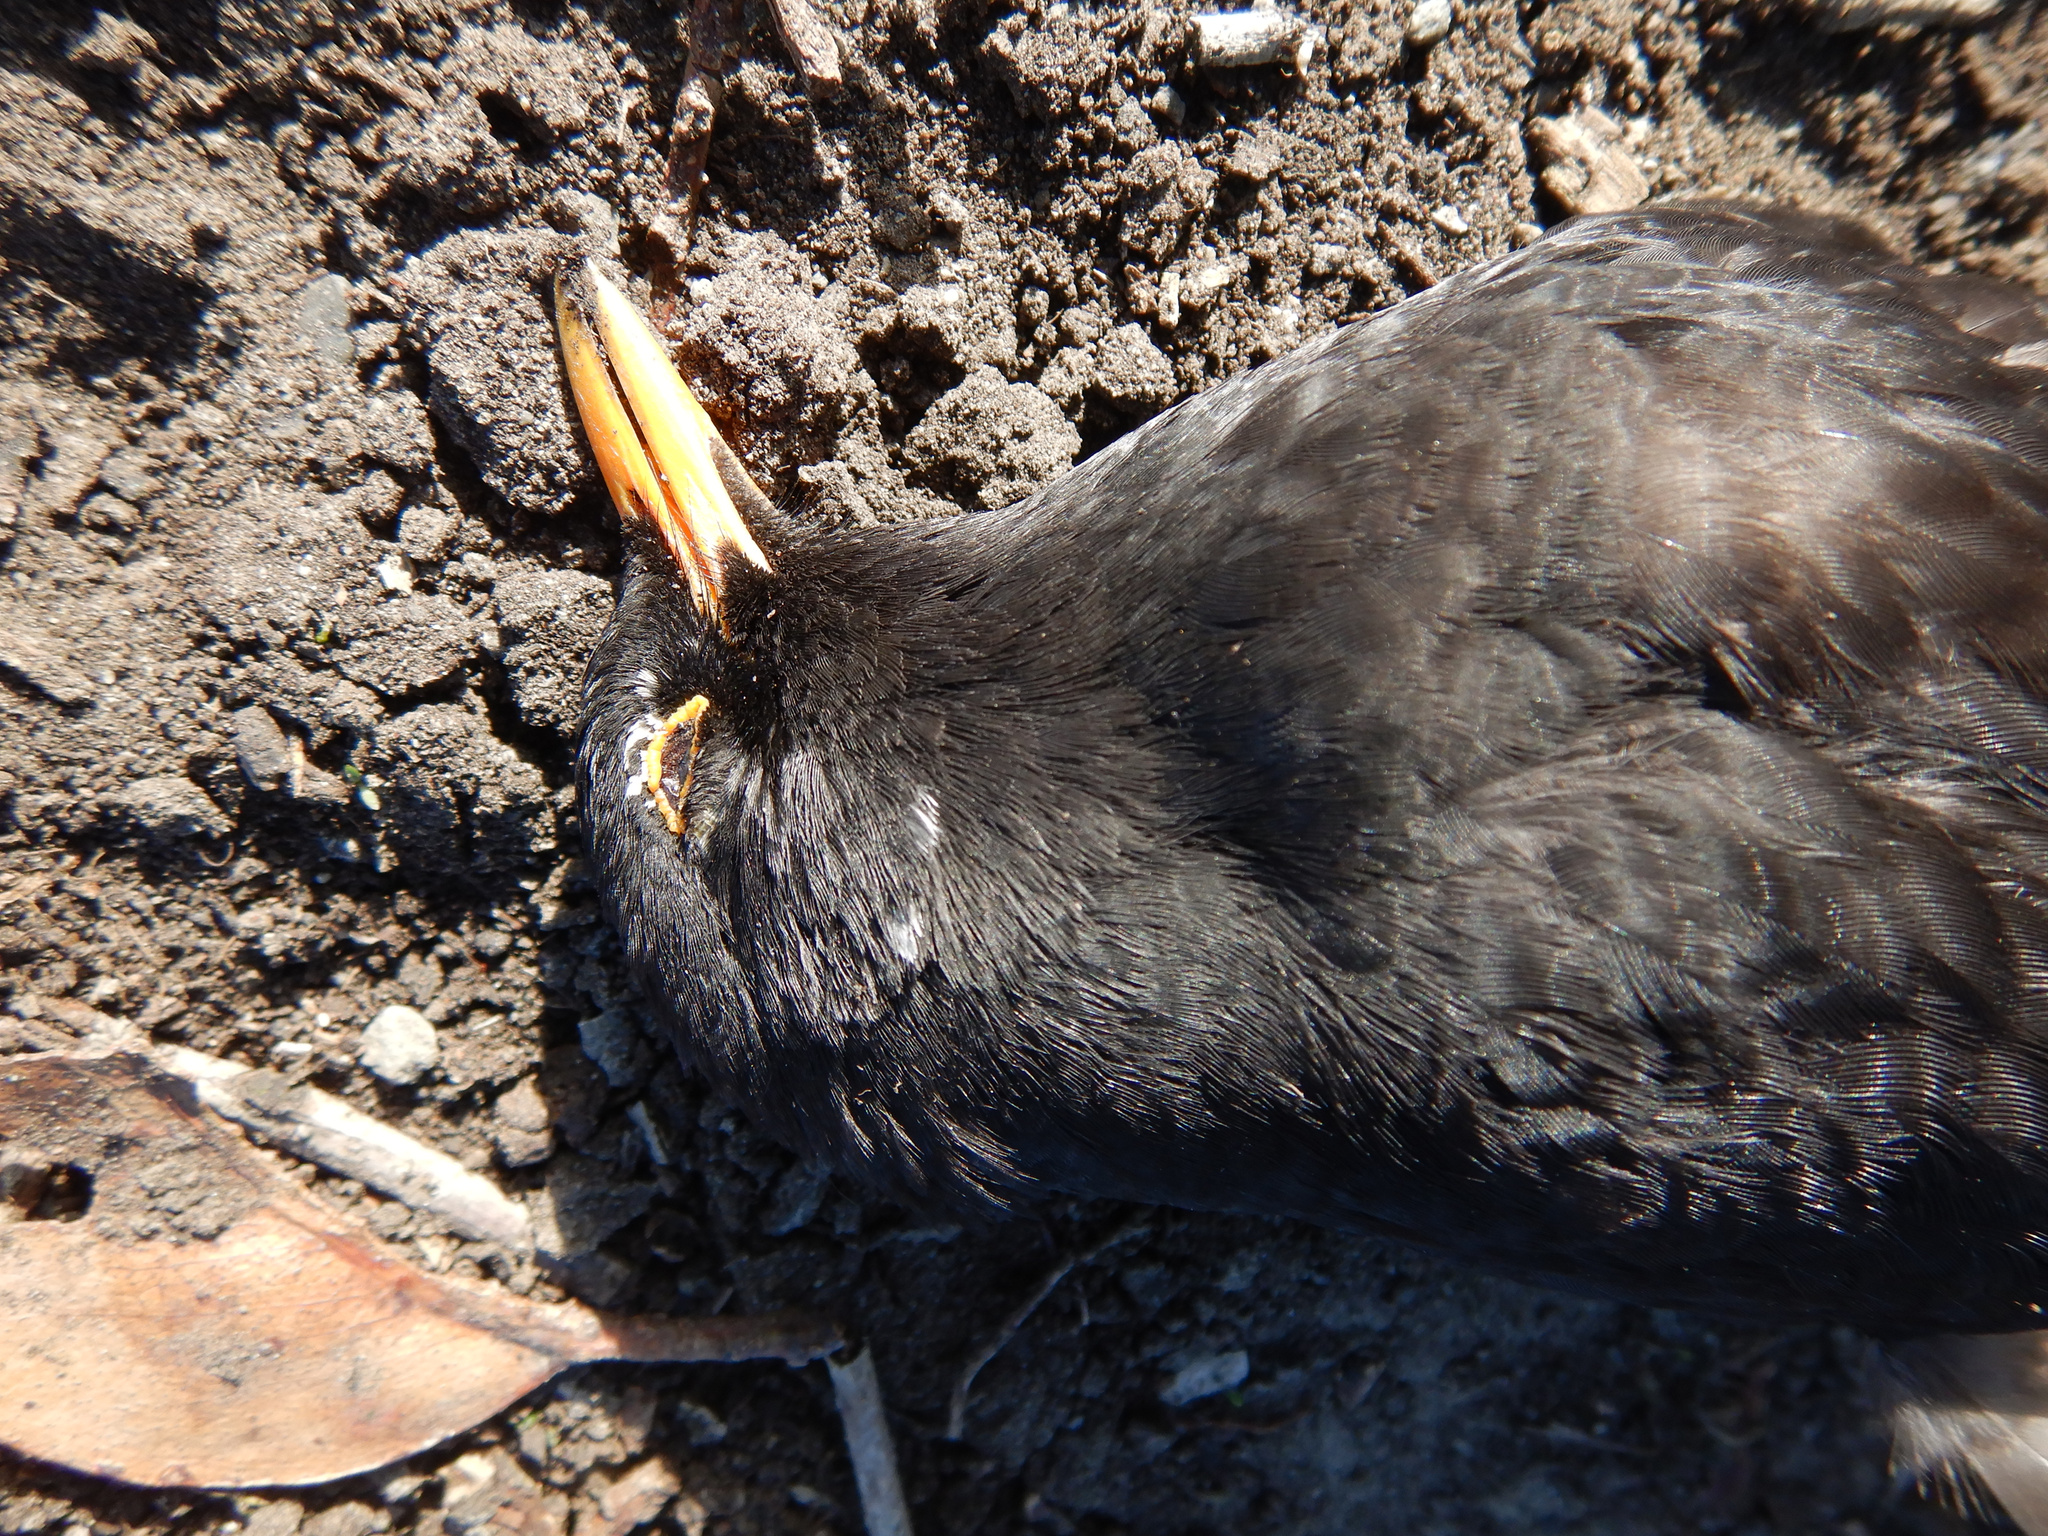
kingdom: Animalia
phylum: Chordata
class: Aves
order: Passeriformes
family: Turdidae
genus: Turdus
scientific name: Turdus merula
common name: Common blackbird
